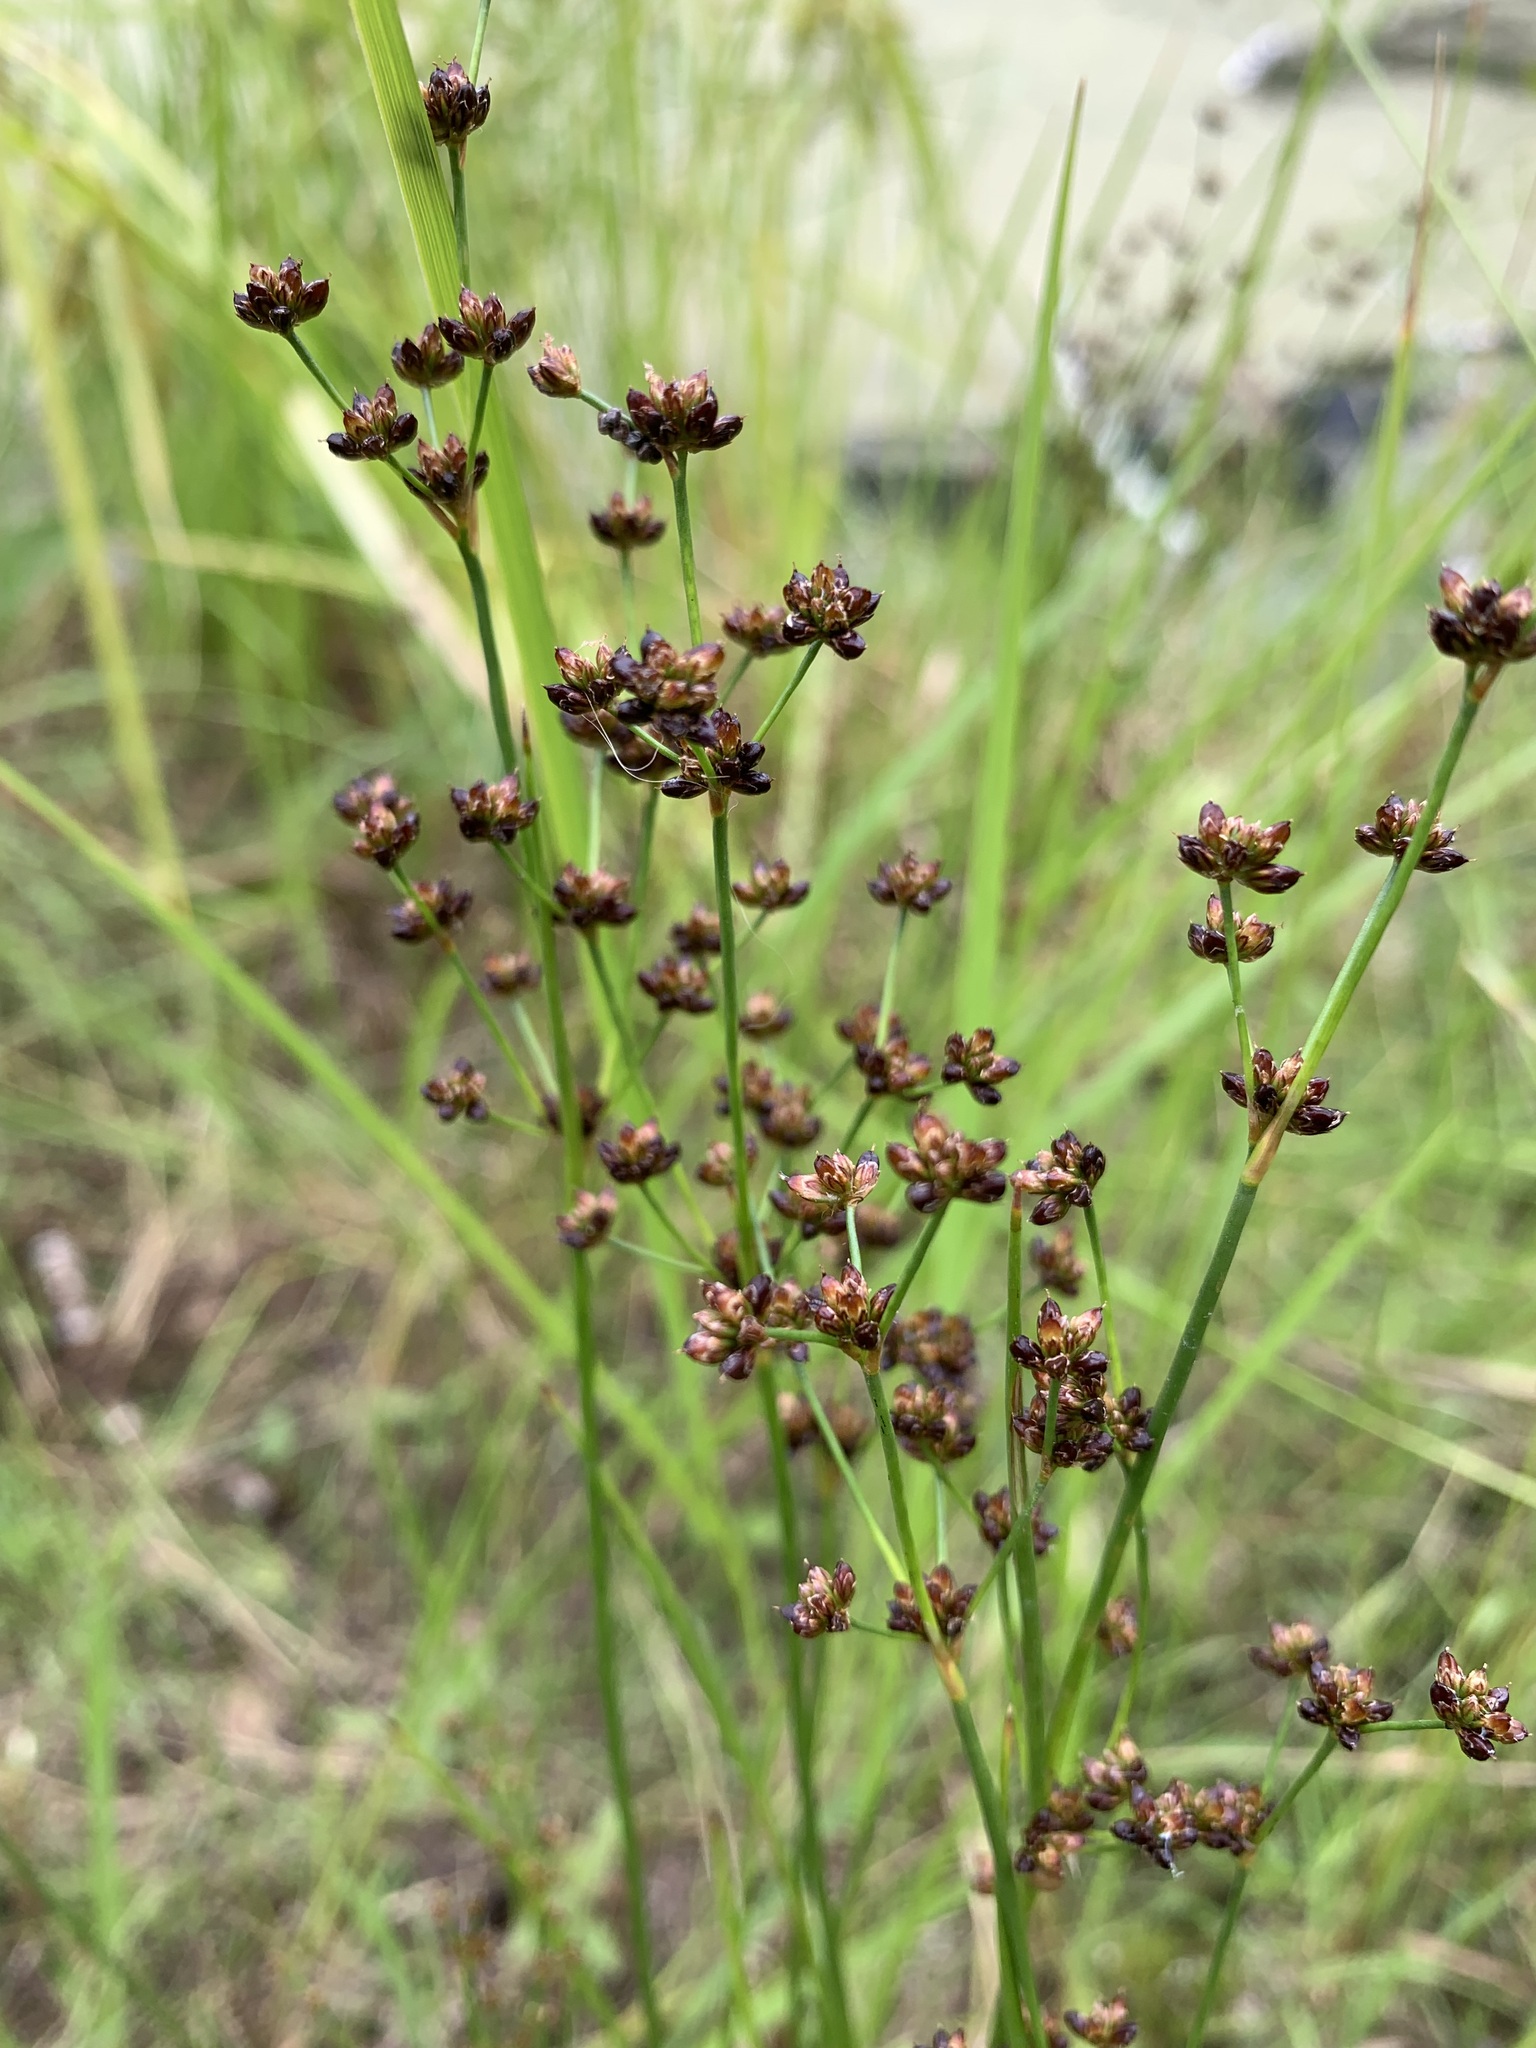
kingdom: Plantae
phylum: Tracheophyta
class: Liliopsida
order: Poales
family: Juncaceae
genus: Juncus
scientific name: Juncus alpinoarticulatus
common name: Alpine rush
